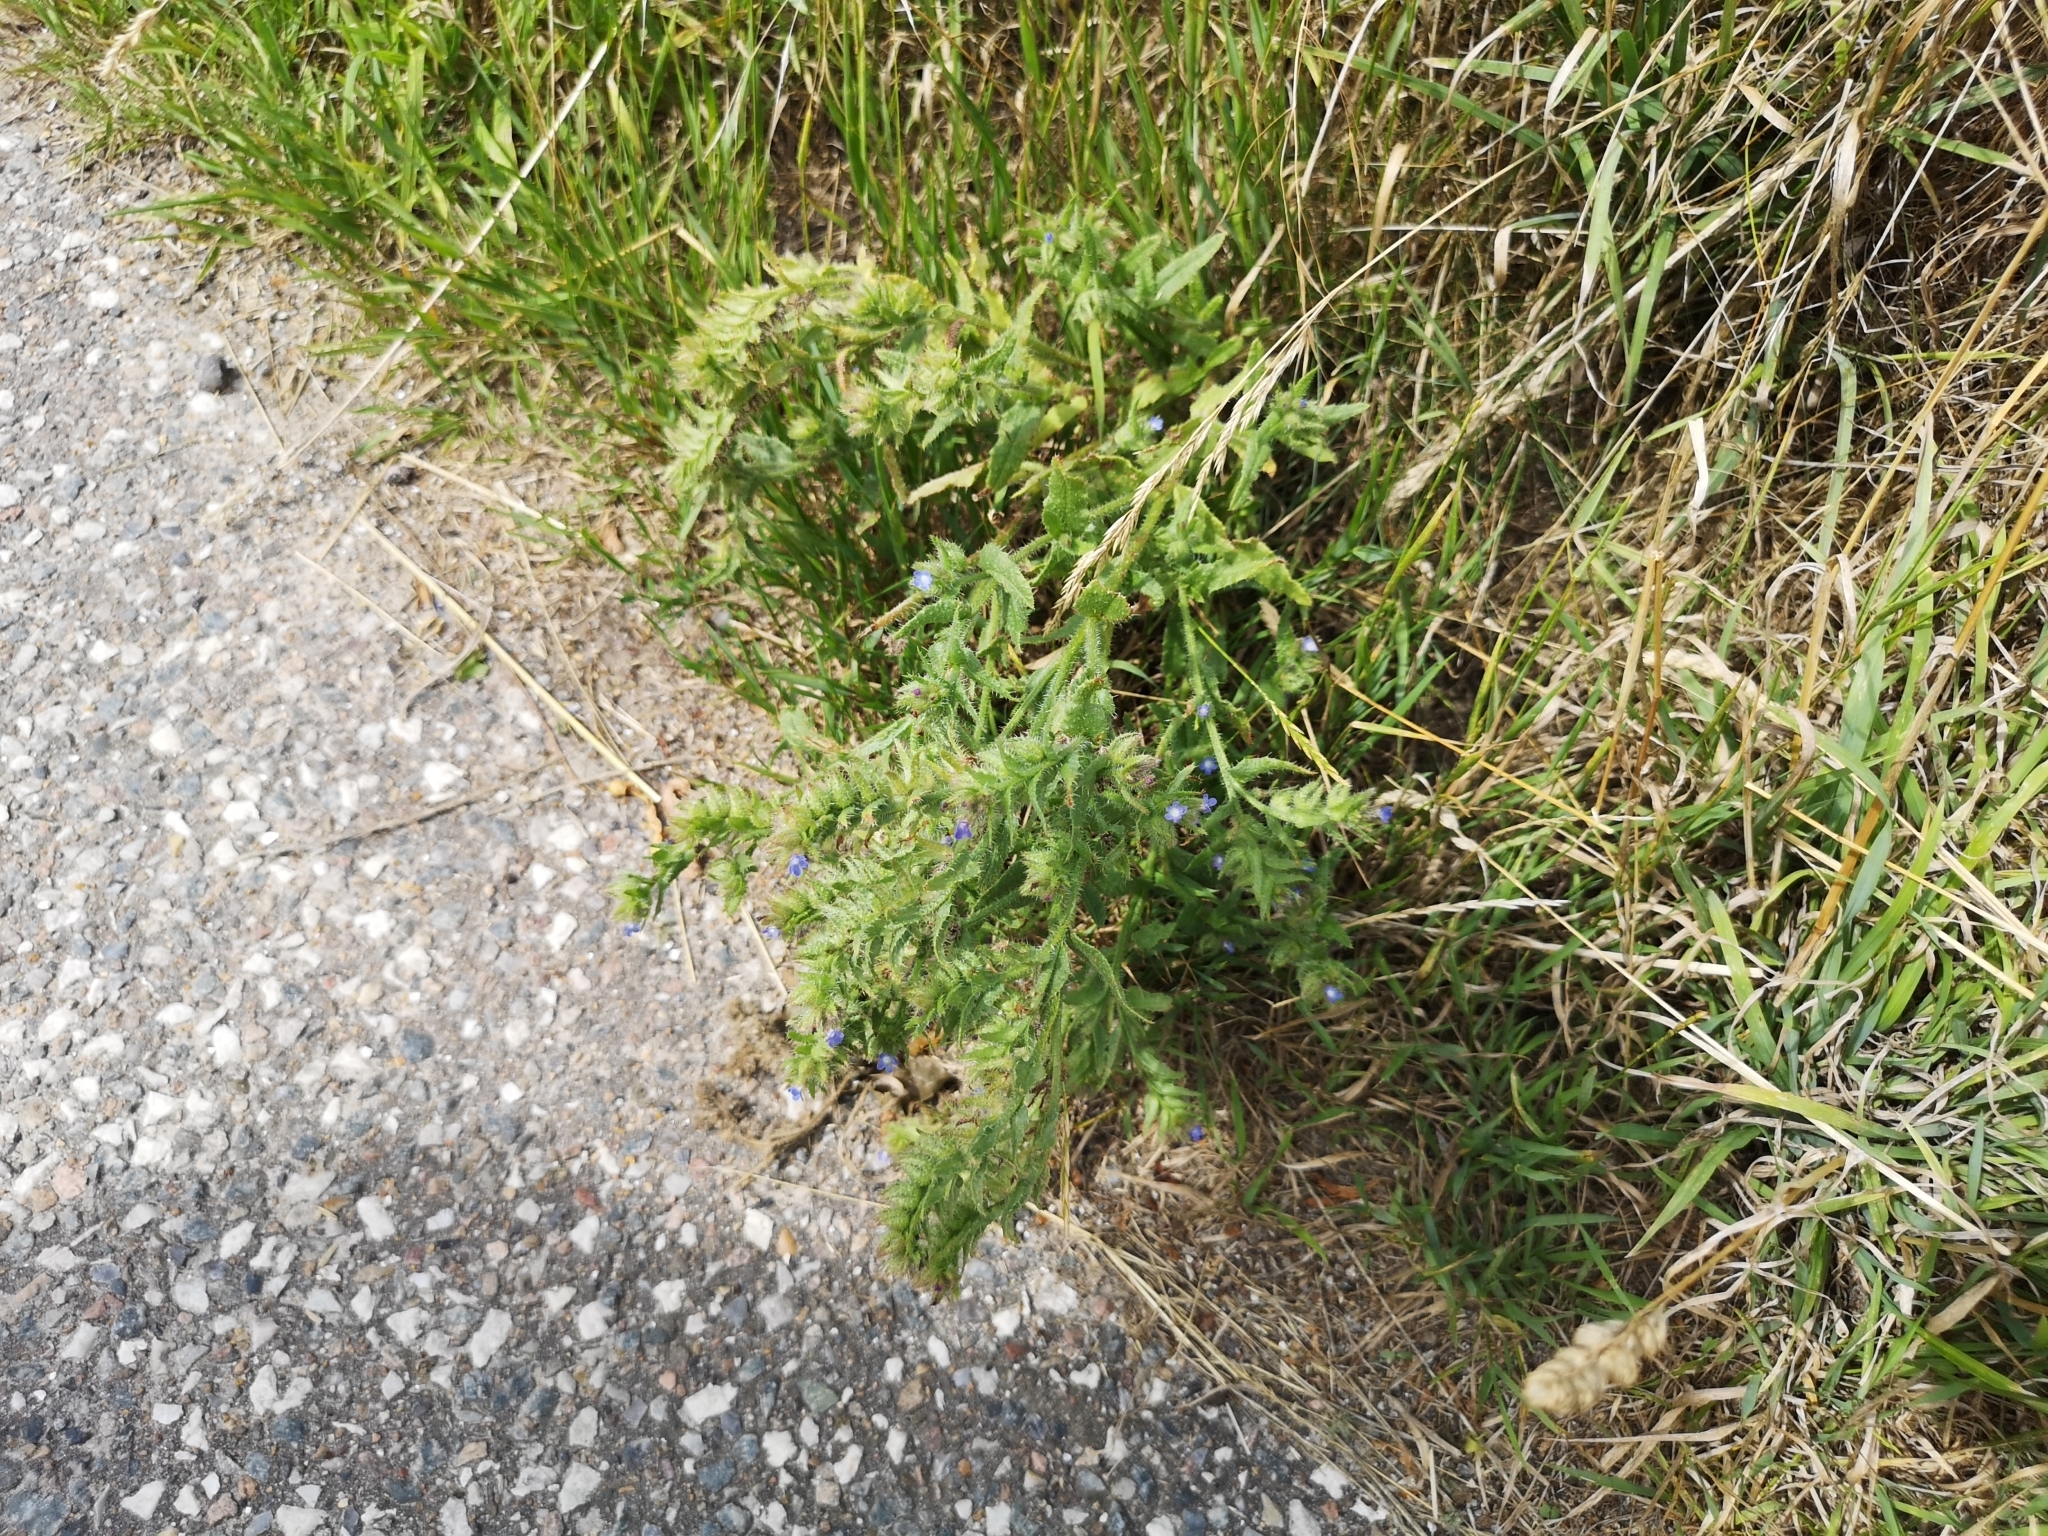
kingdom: Plantae
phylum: Tracheophyta
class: Magnoliopsida
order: Boraginales
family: Boraginaceae
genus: Lycopsis
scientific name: Lycopsis arvensis
